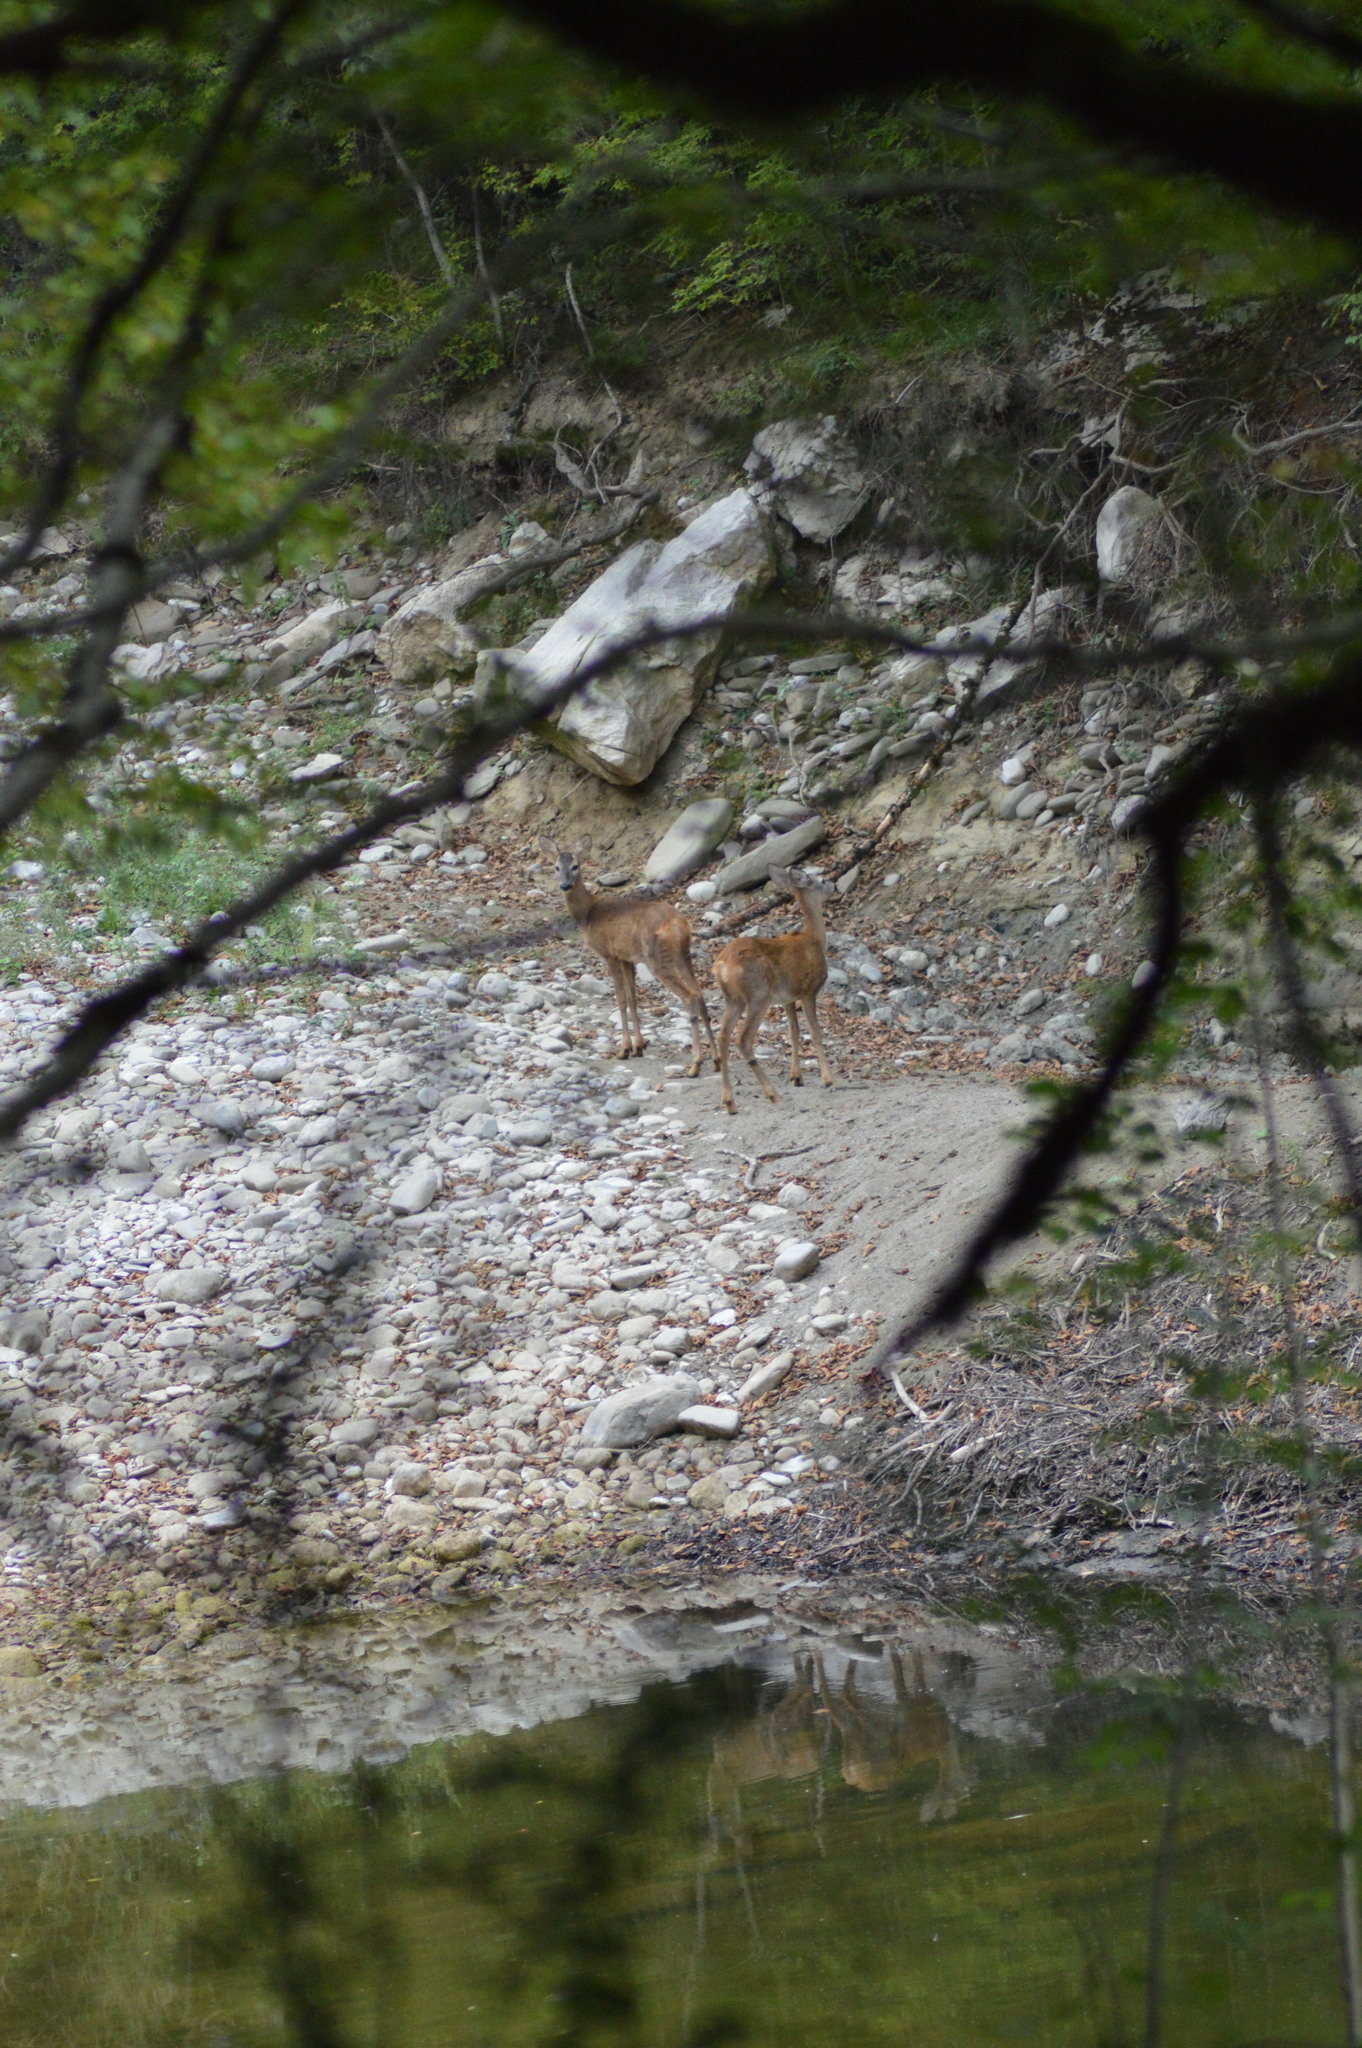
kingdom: Animalia
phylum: Chordata
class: Mammalia
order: Artiodactyla
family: Cervidae
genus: Capreolus
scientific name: Capreolus capreolus
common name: Western roe deer
